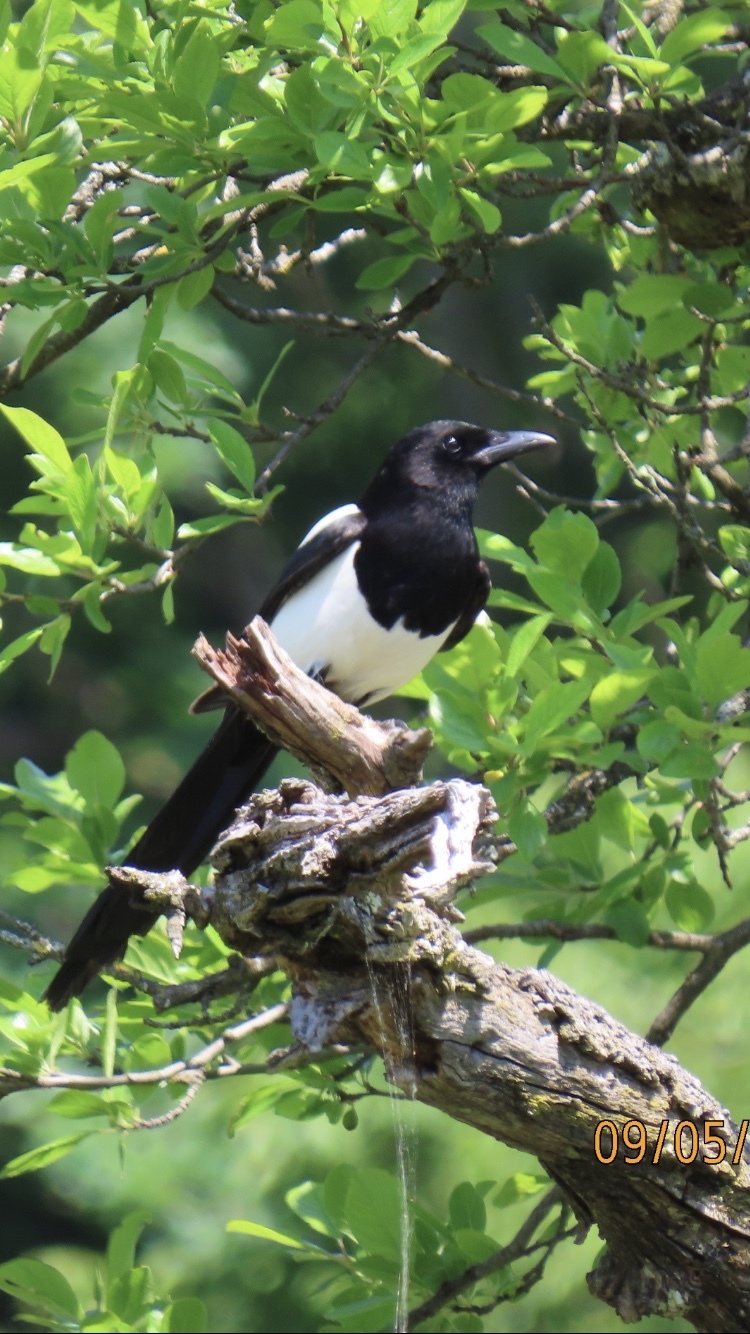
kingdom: Animalia
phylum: Chordata
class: Aves
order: Passeriformes
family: Corvidae
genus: Pica
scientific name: Pica pica
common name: Eurasian magpie
